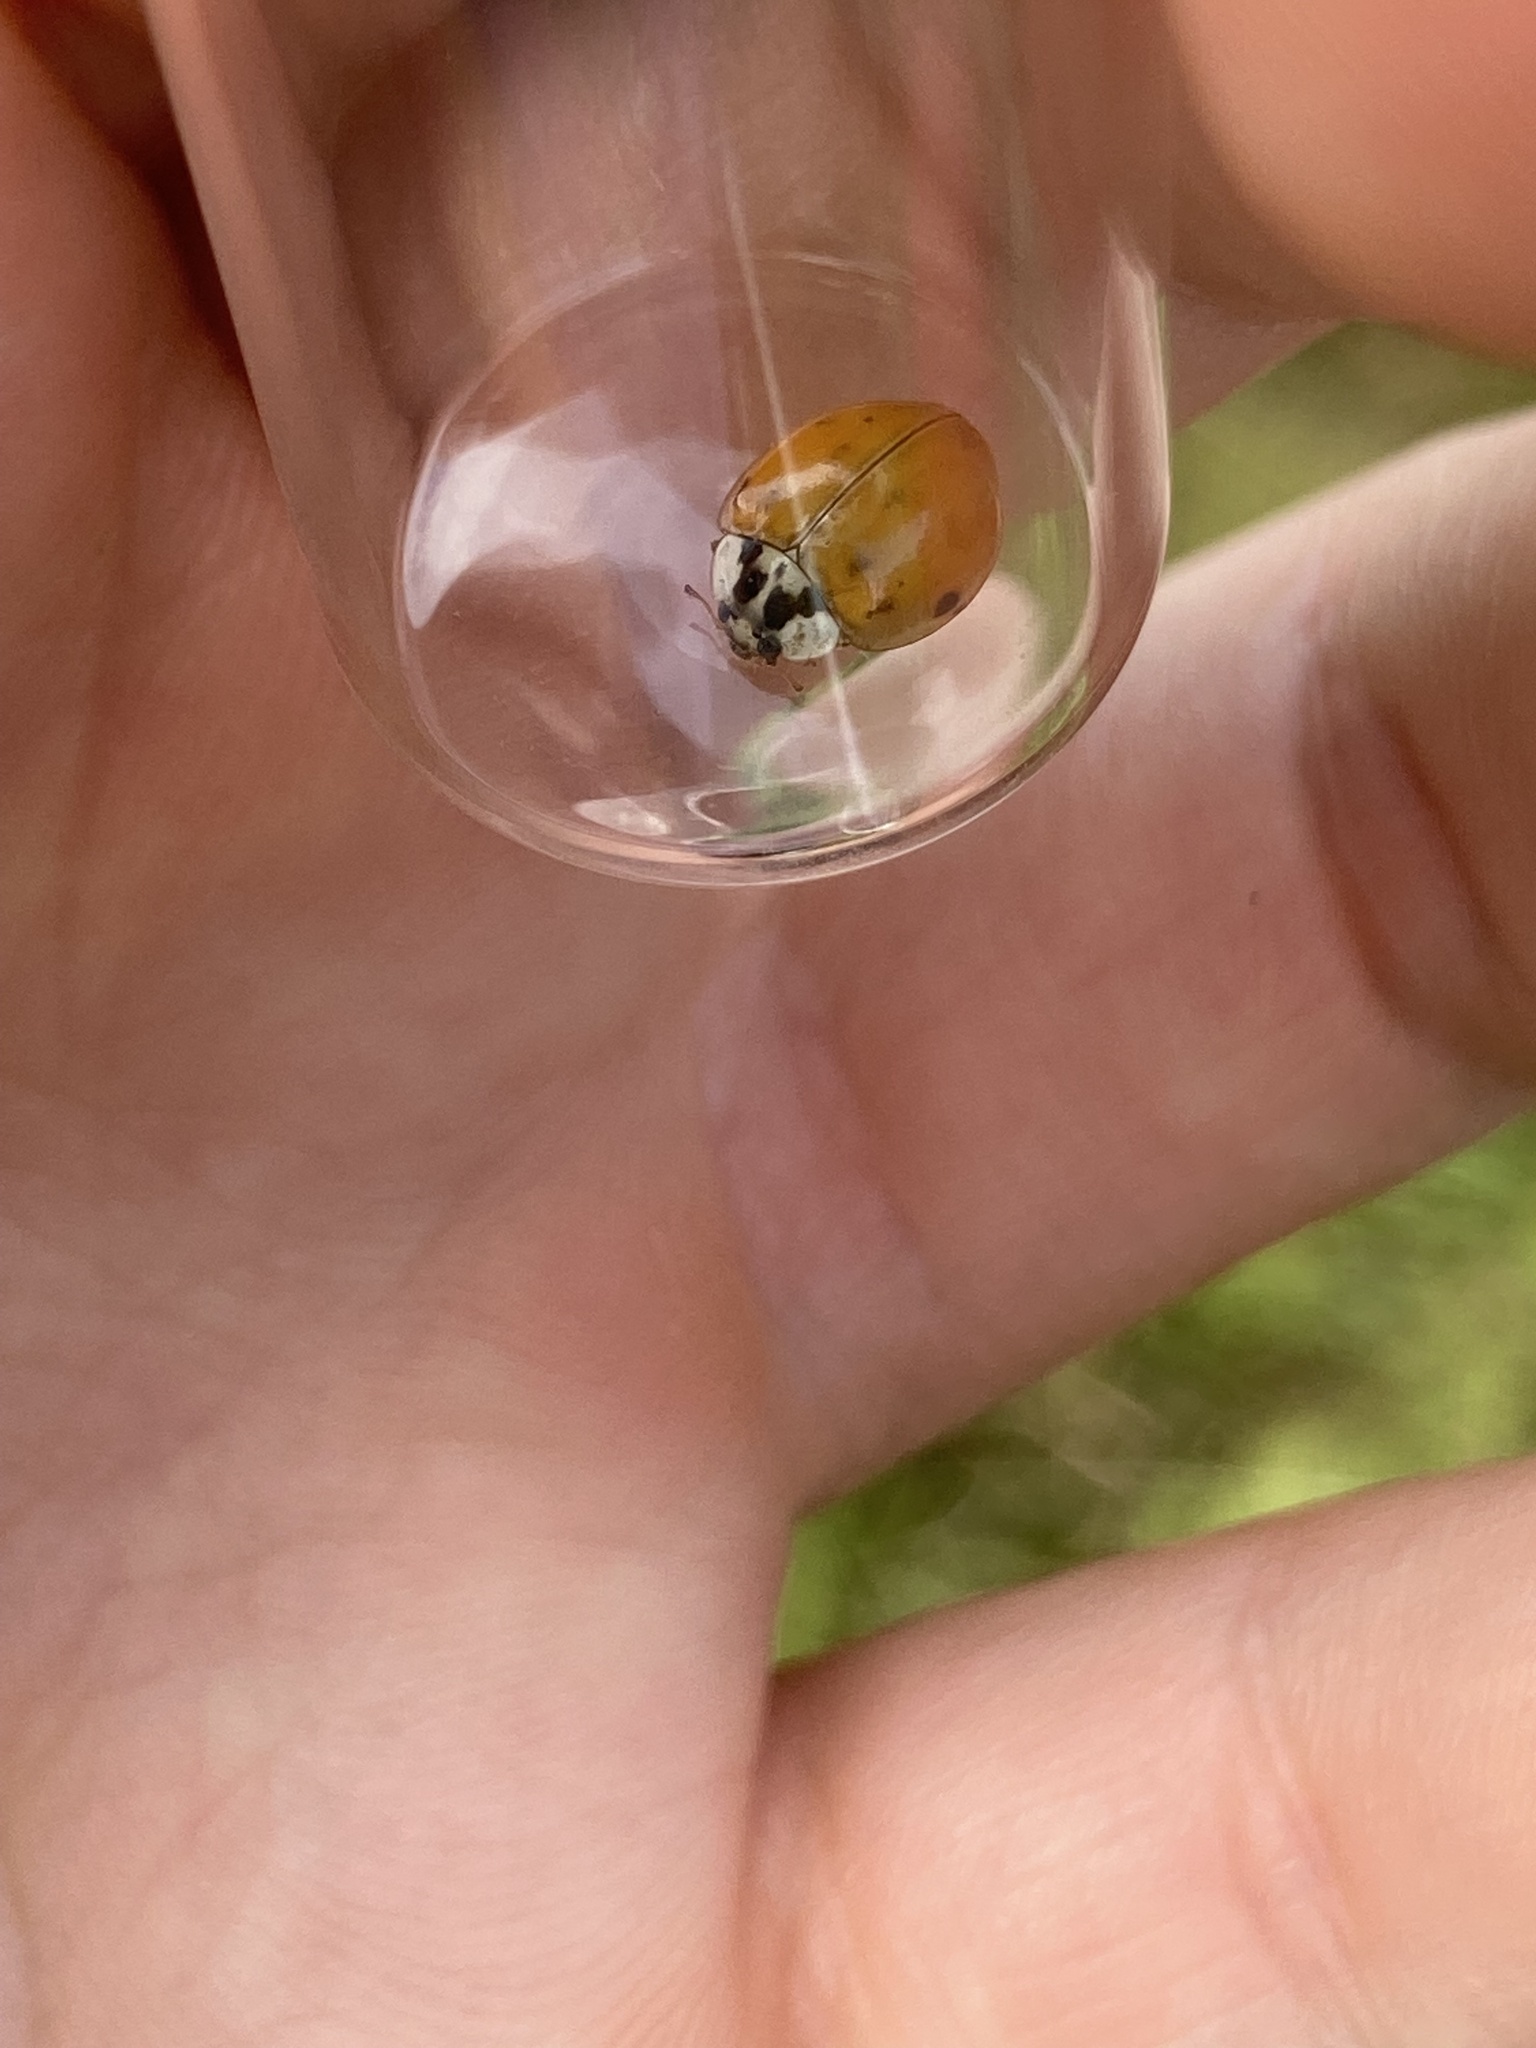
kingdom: Animalia
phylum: Arthropoda
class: Insecta
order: Coleoptera
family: Coccinellidae
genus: Harmonia
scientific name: Harmonia axyridis
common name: Harlequin ladybird
